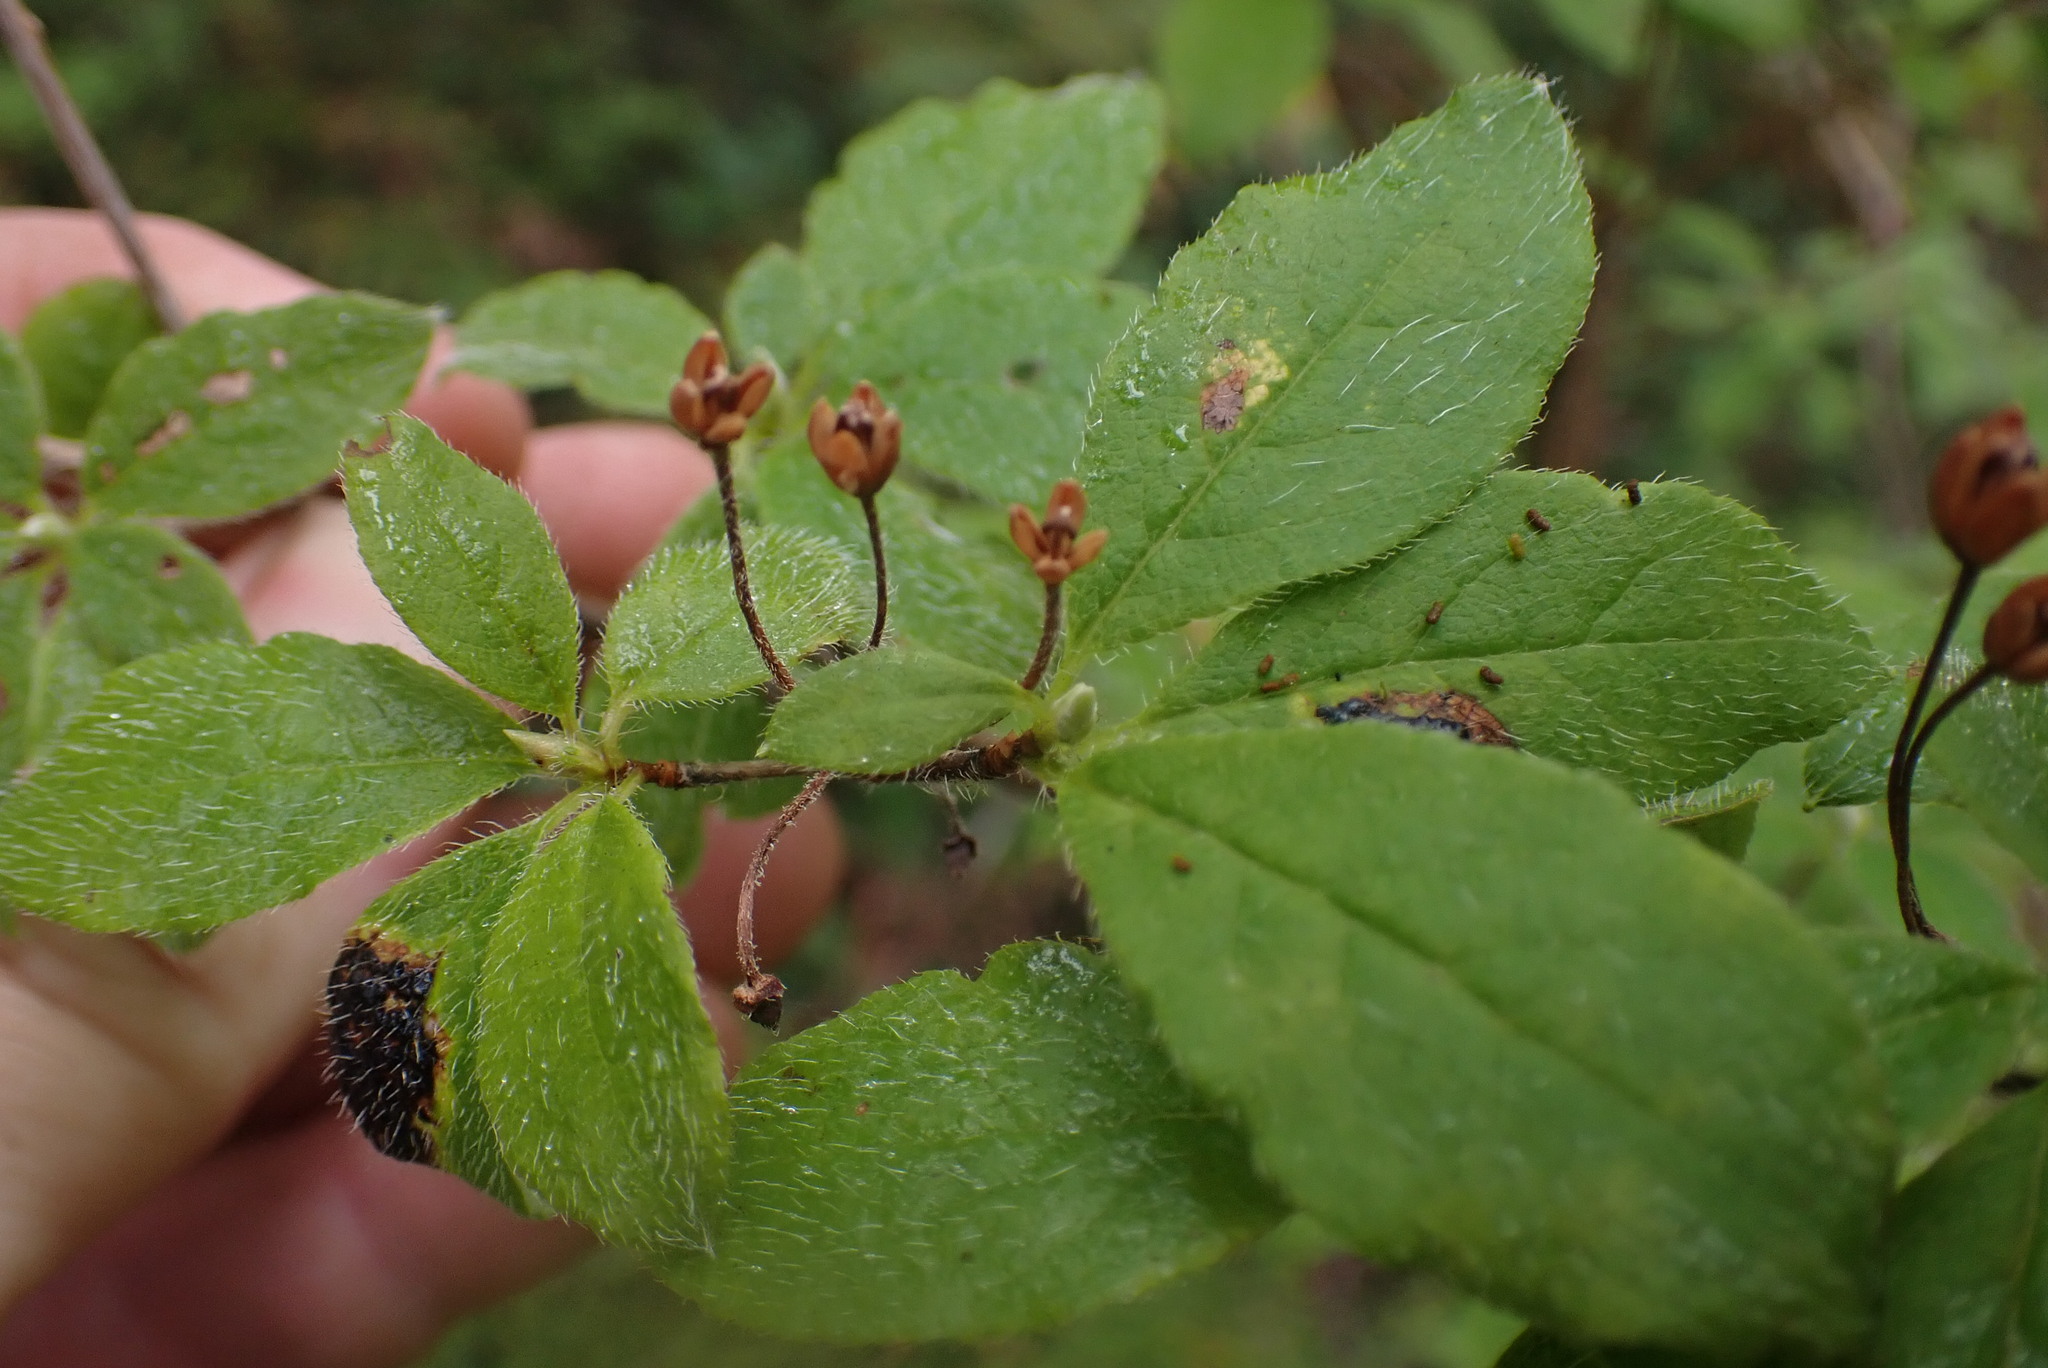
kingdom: Plantae
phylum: Tracheophyta
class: Magnoliopsida
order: Ericales
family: Ericaceae
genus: Rhododendron
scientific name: Rhododendron menziesii
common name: Pacific menziesia
